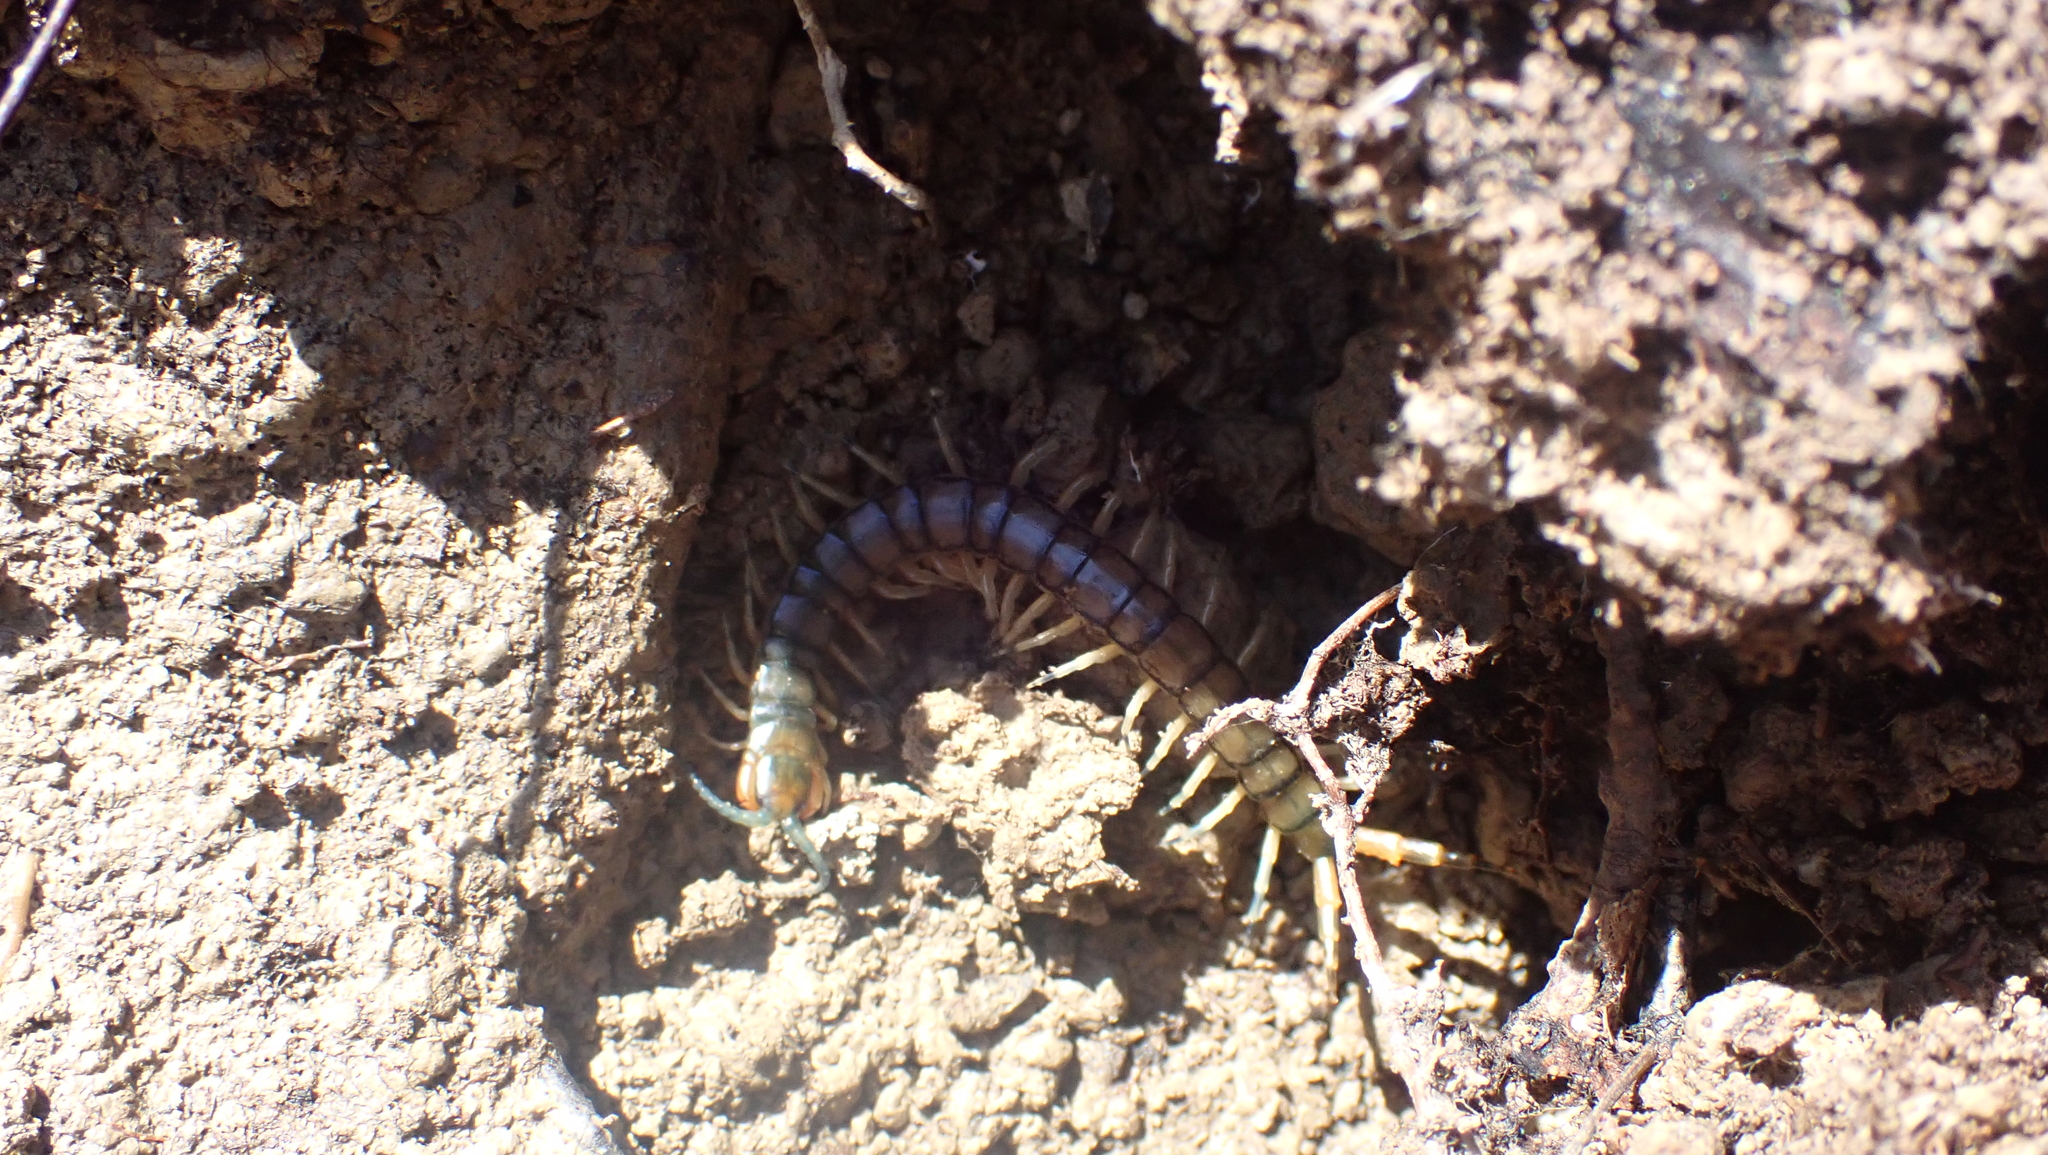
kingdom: Animalia
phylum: Arthropoda
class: Chilopoda
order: Scolopendromorpha
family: Scolopendridae
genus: Hemiscolopendra
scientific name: Hemiscolopendra marginata
